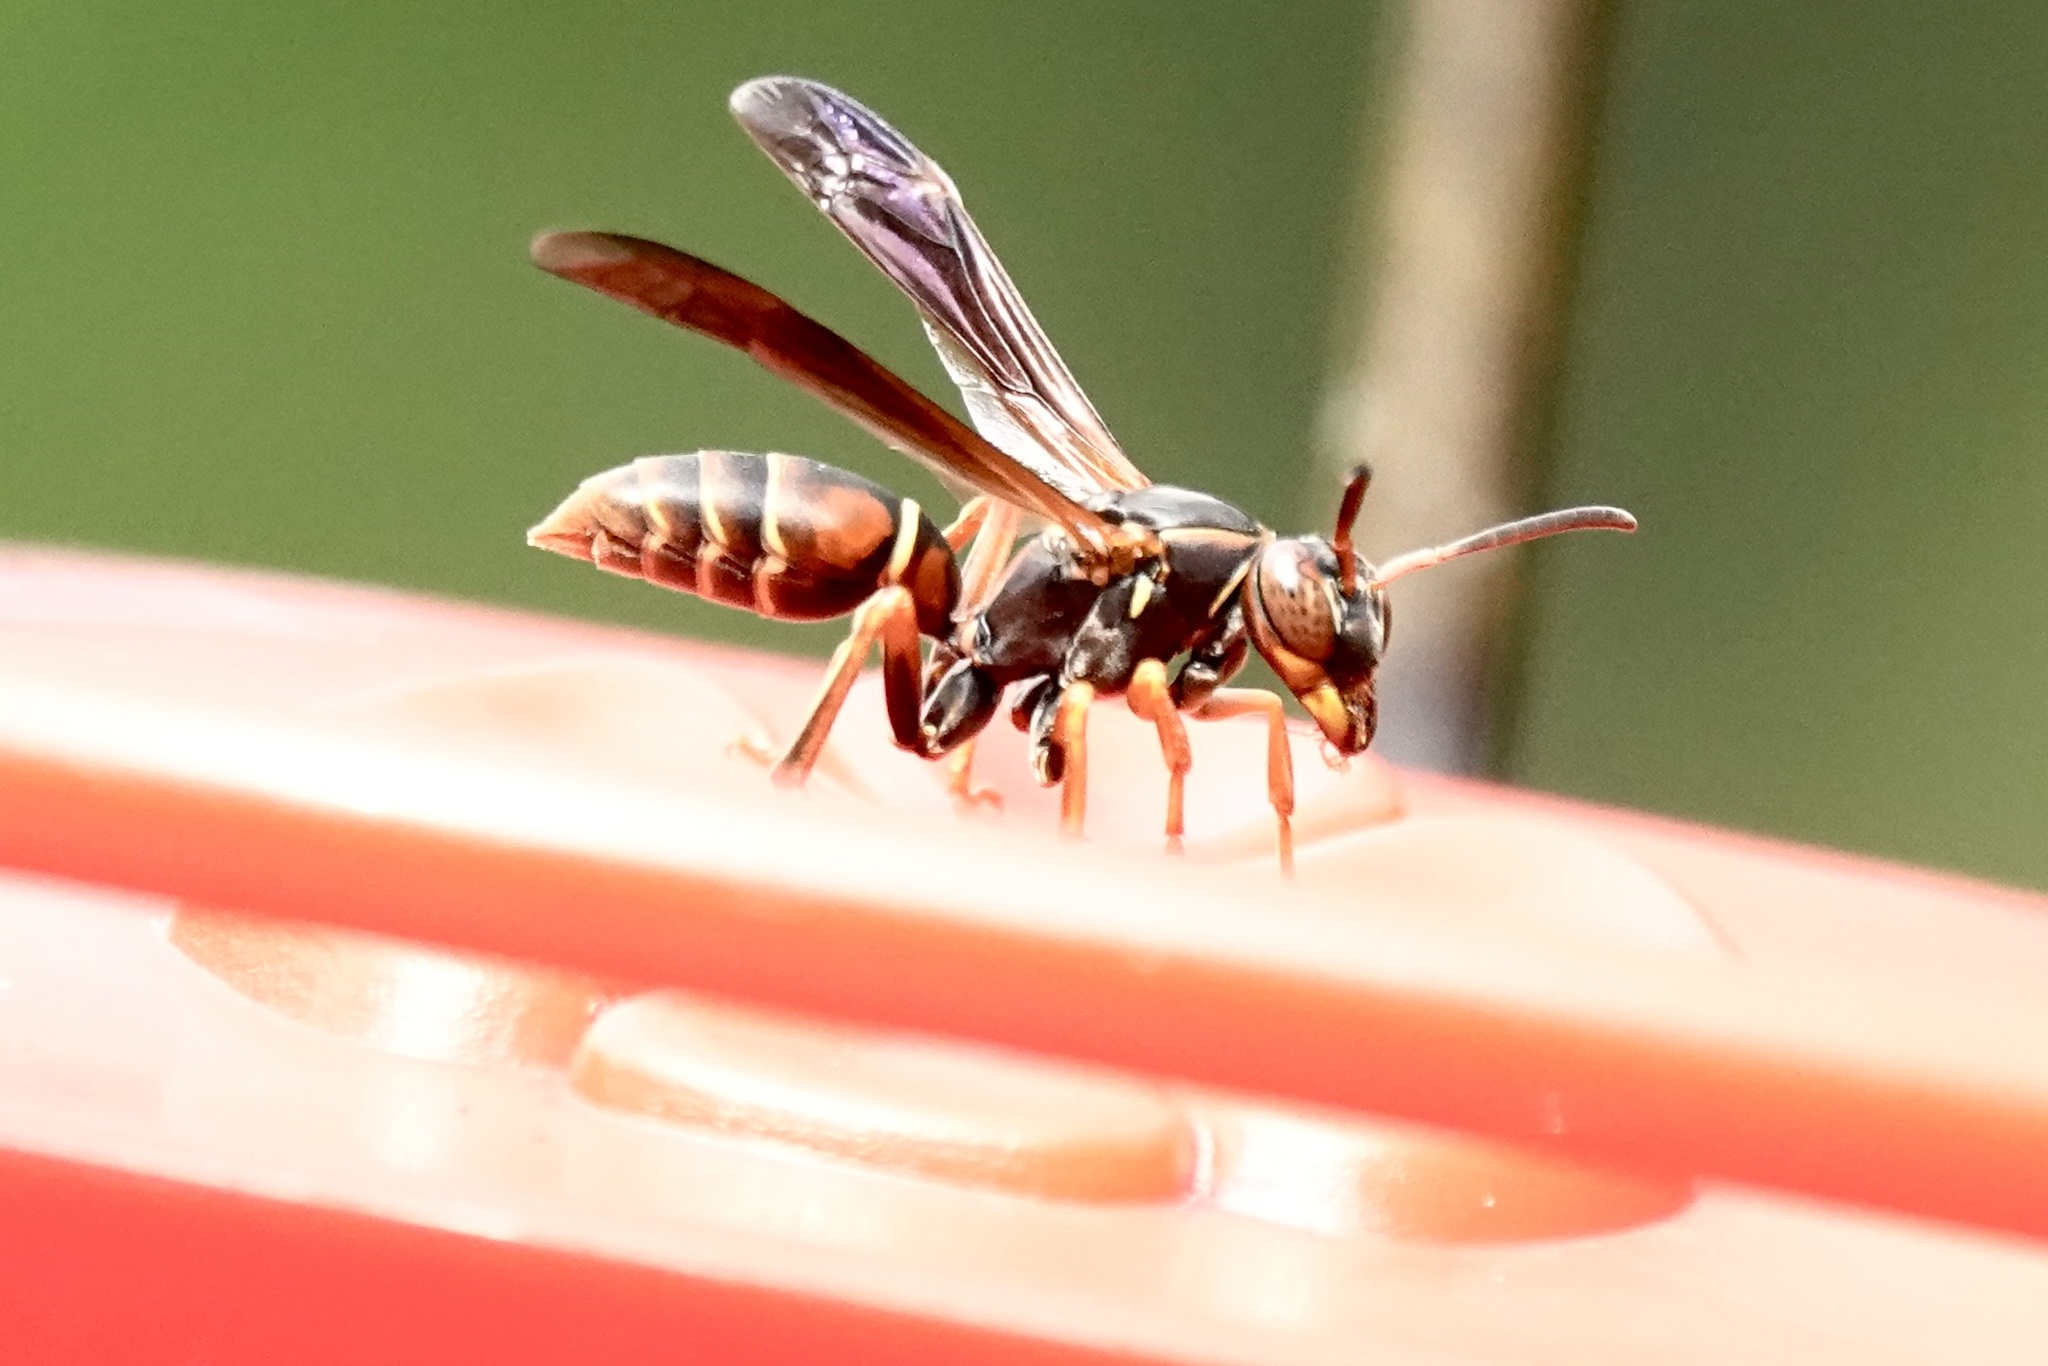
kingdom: Animalia
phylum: Arthropoda
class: Insecta
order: Hymenoptera
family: Eumenidae
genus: Polistes
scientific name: Polistes fuscatus
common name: Dark paper wasp
